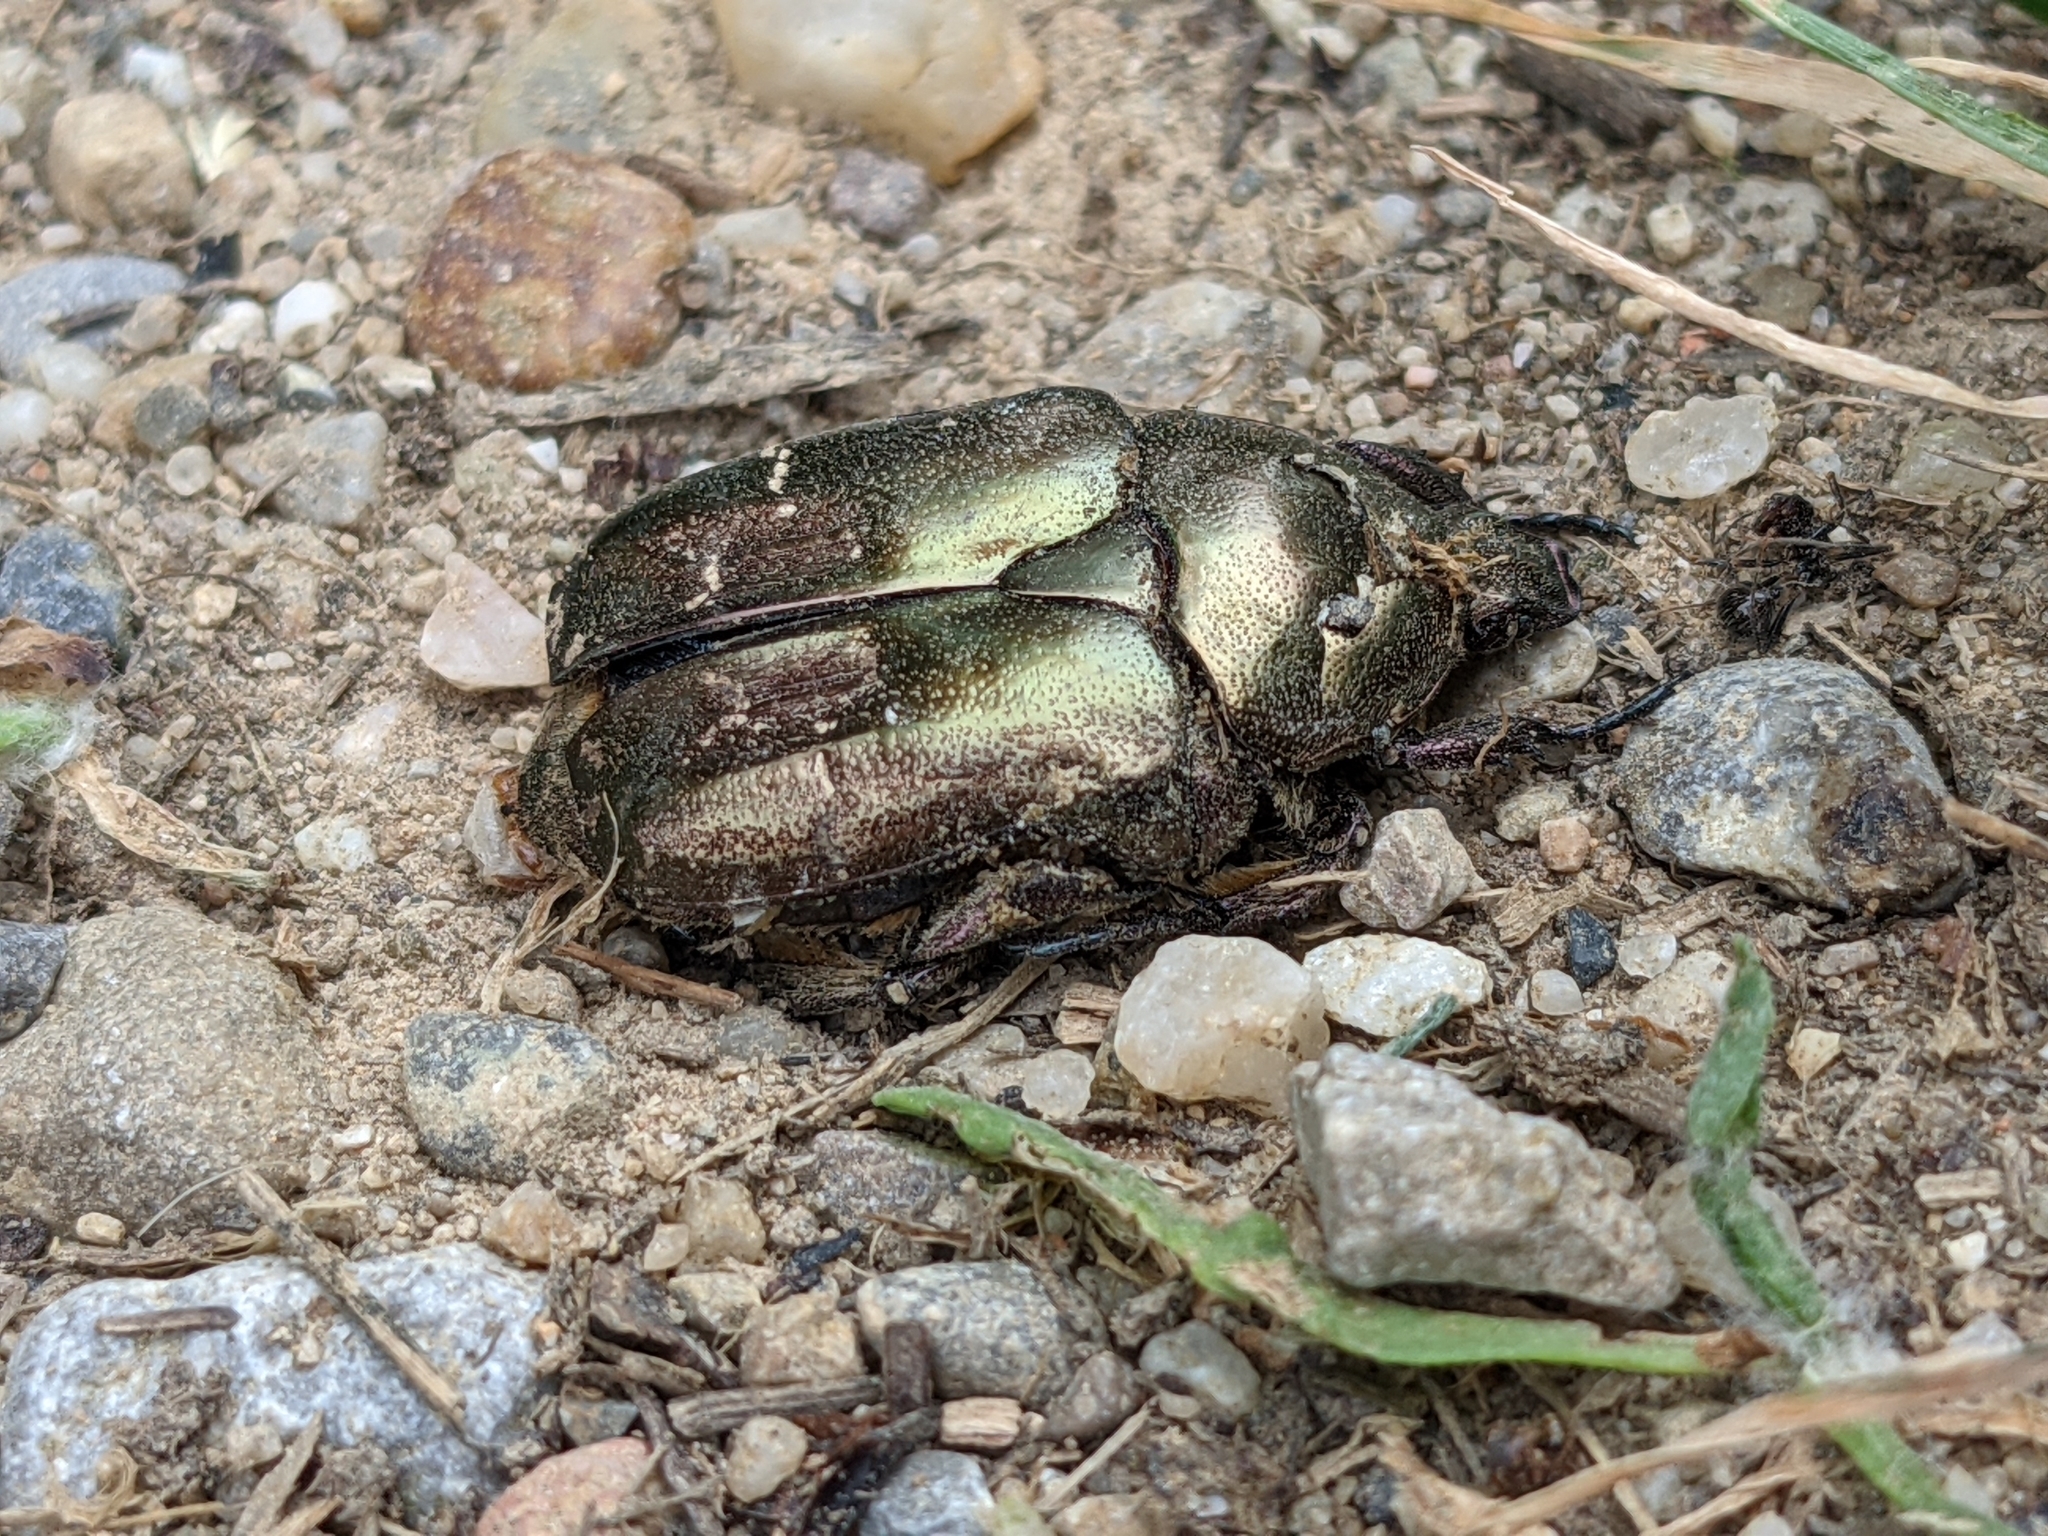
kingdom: Animalia
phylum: Arthropoda
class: Insecta
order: Coleoptera
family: Scarabaeidae
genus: Protaetia
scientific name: Protaetia cuprea
